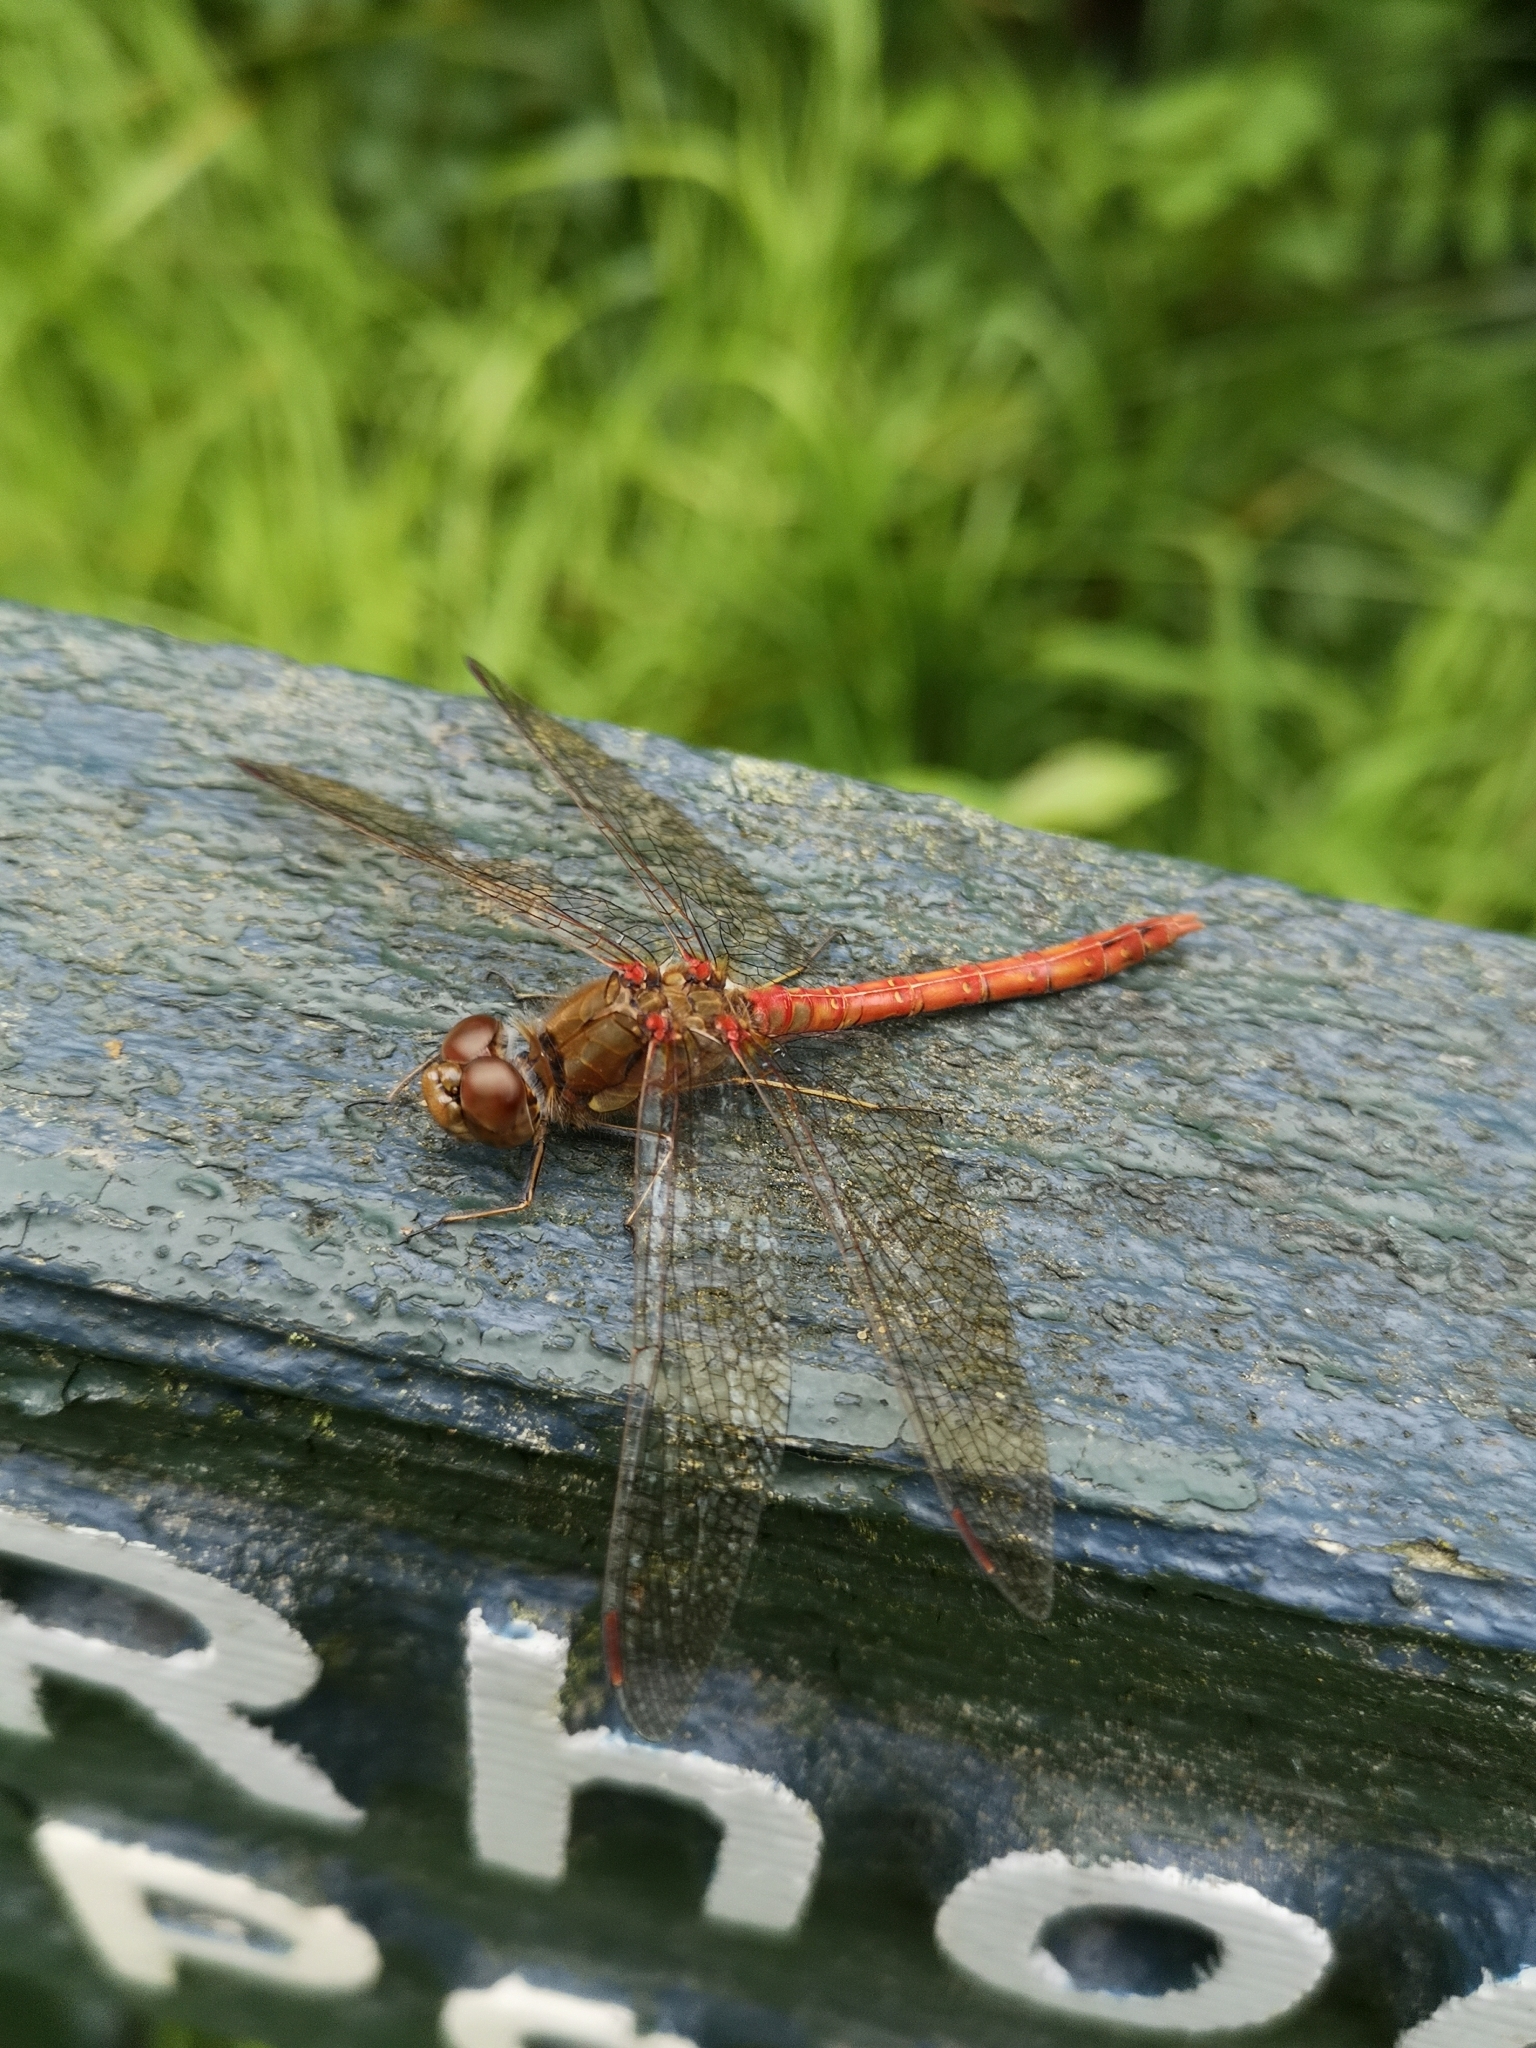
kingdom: Animalia
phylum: Arthropoda
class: Insecta
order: Odonata
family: Libellulidae
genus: Sympetrum
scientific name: Sympetrum striolatum
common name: Common darter
